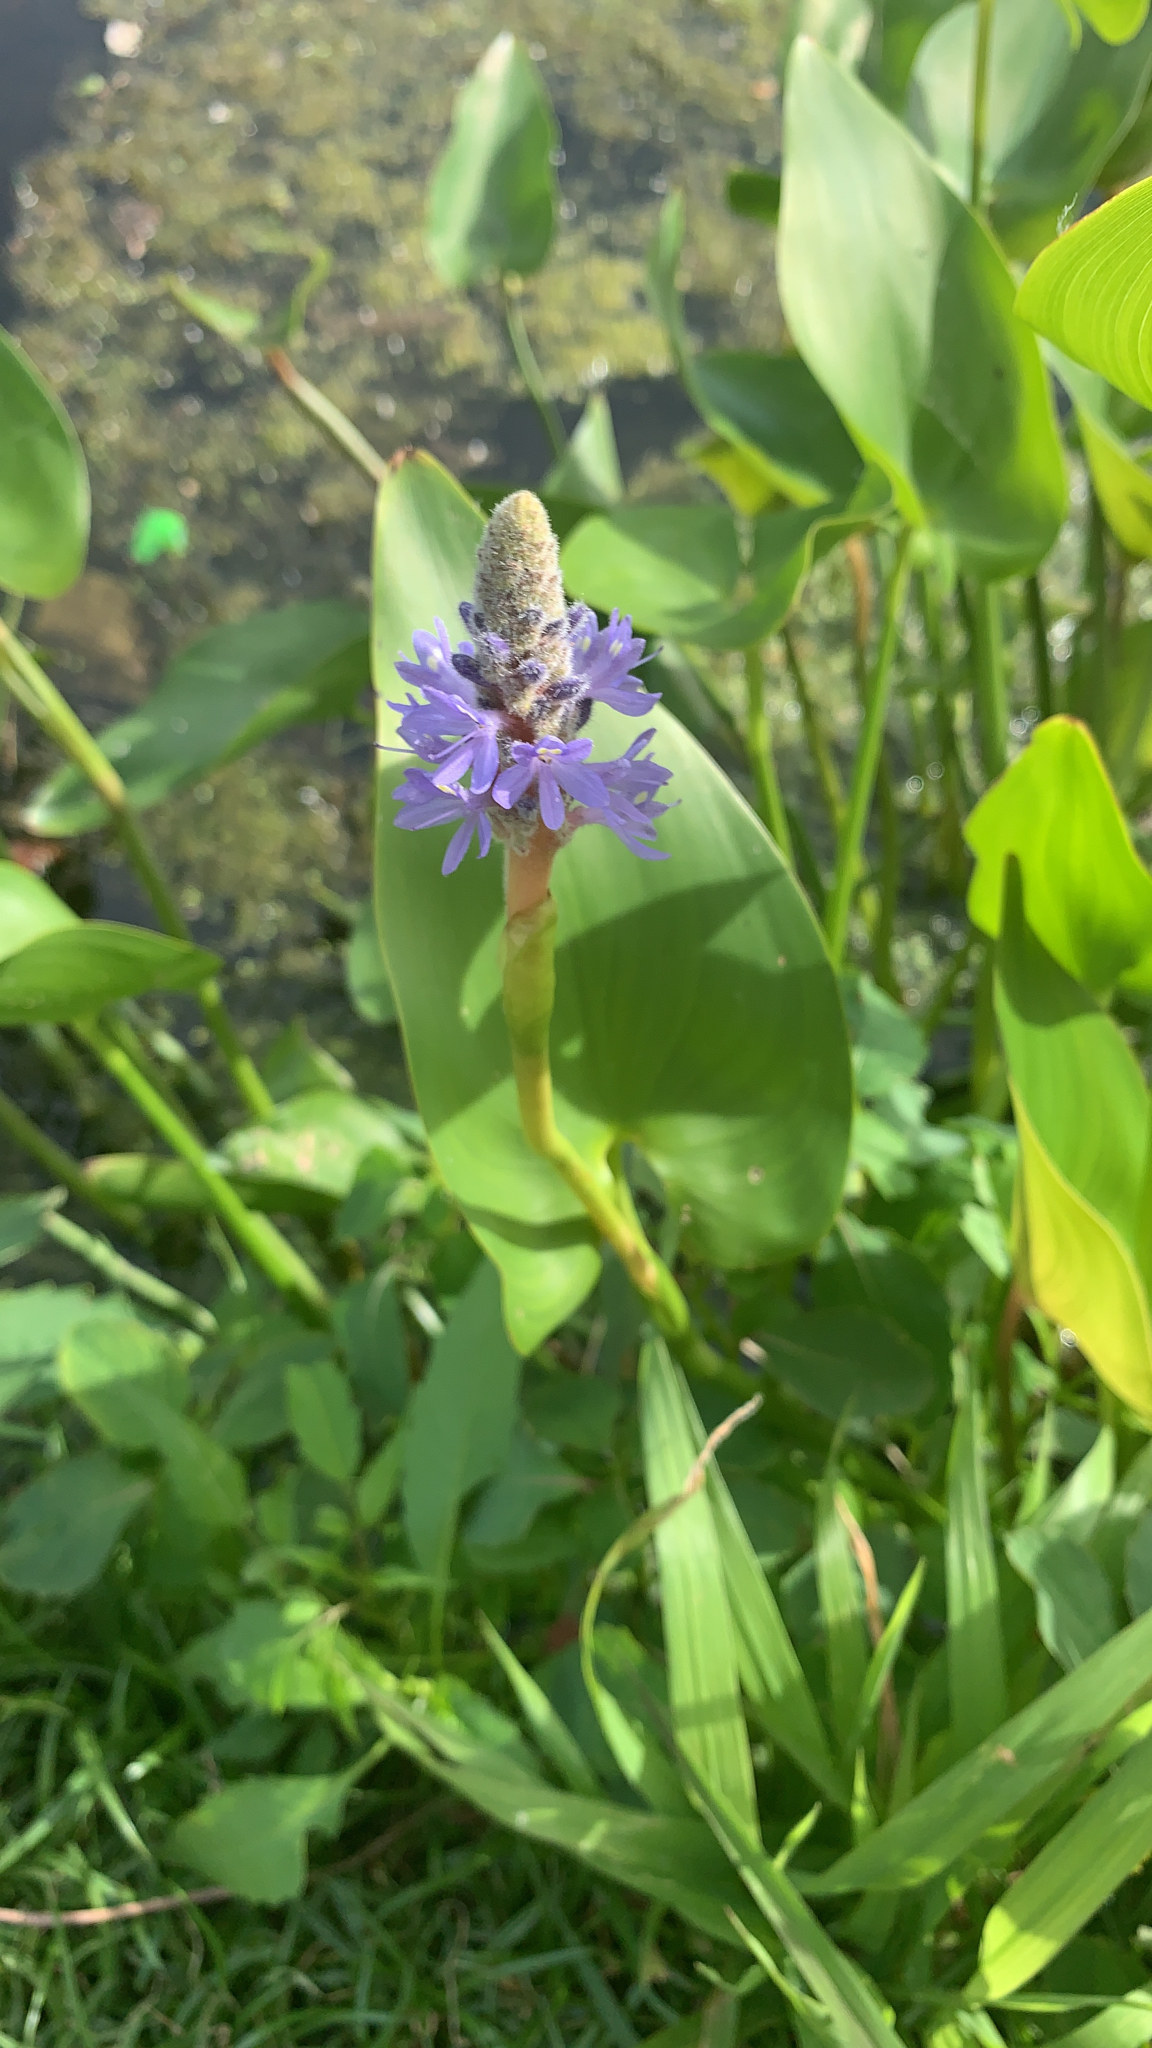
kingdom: Plantae
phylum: Tracheophyta
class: Liliopsida
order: Commelinales
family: Pontederiaceae
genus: Pontederia
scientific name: Pontederia cordata
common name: Pickerelweed
